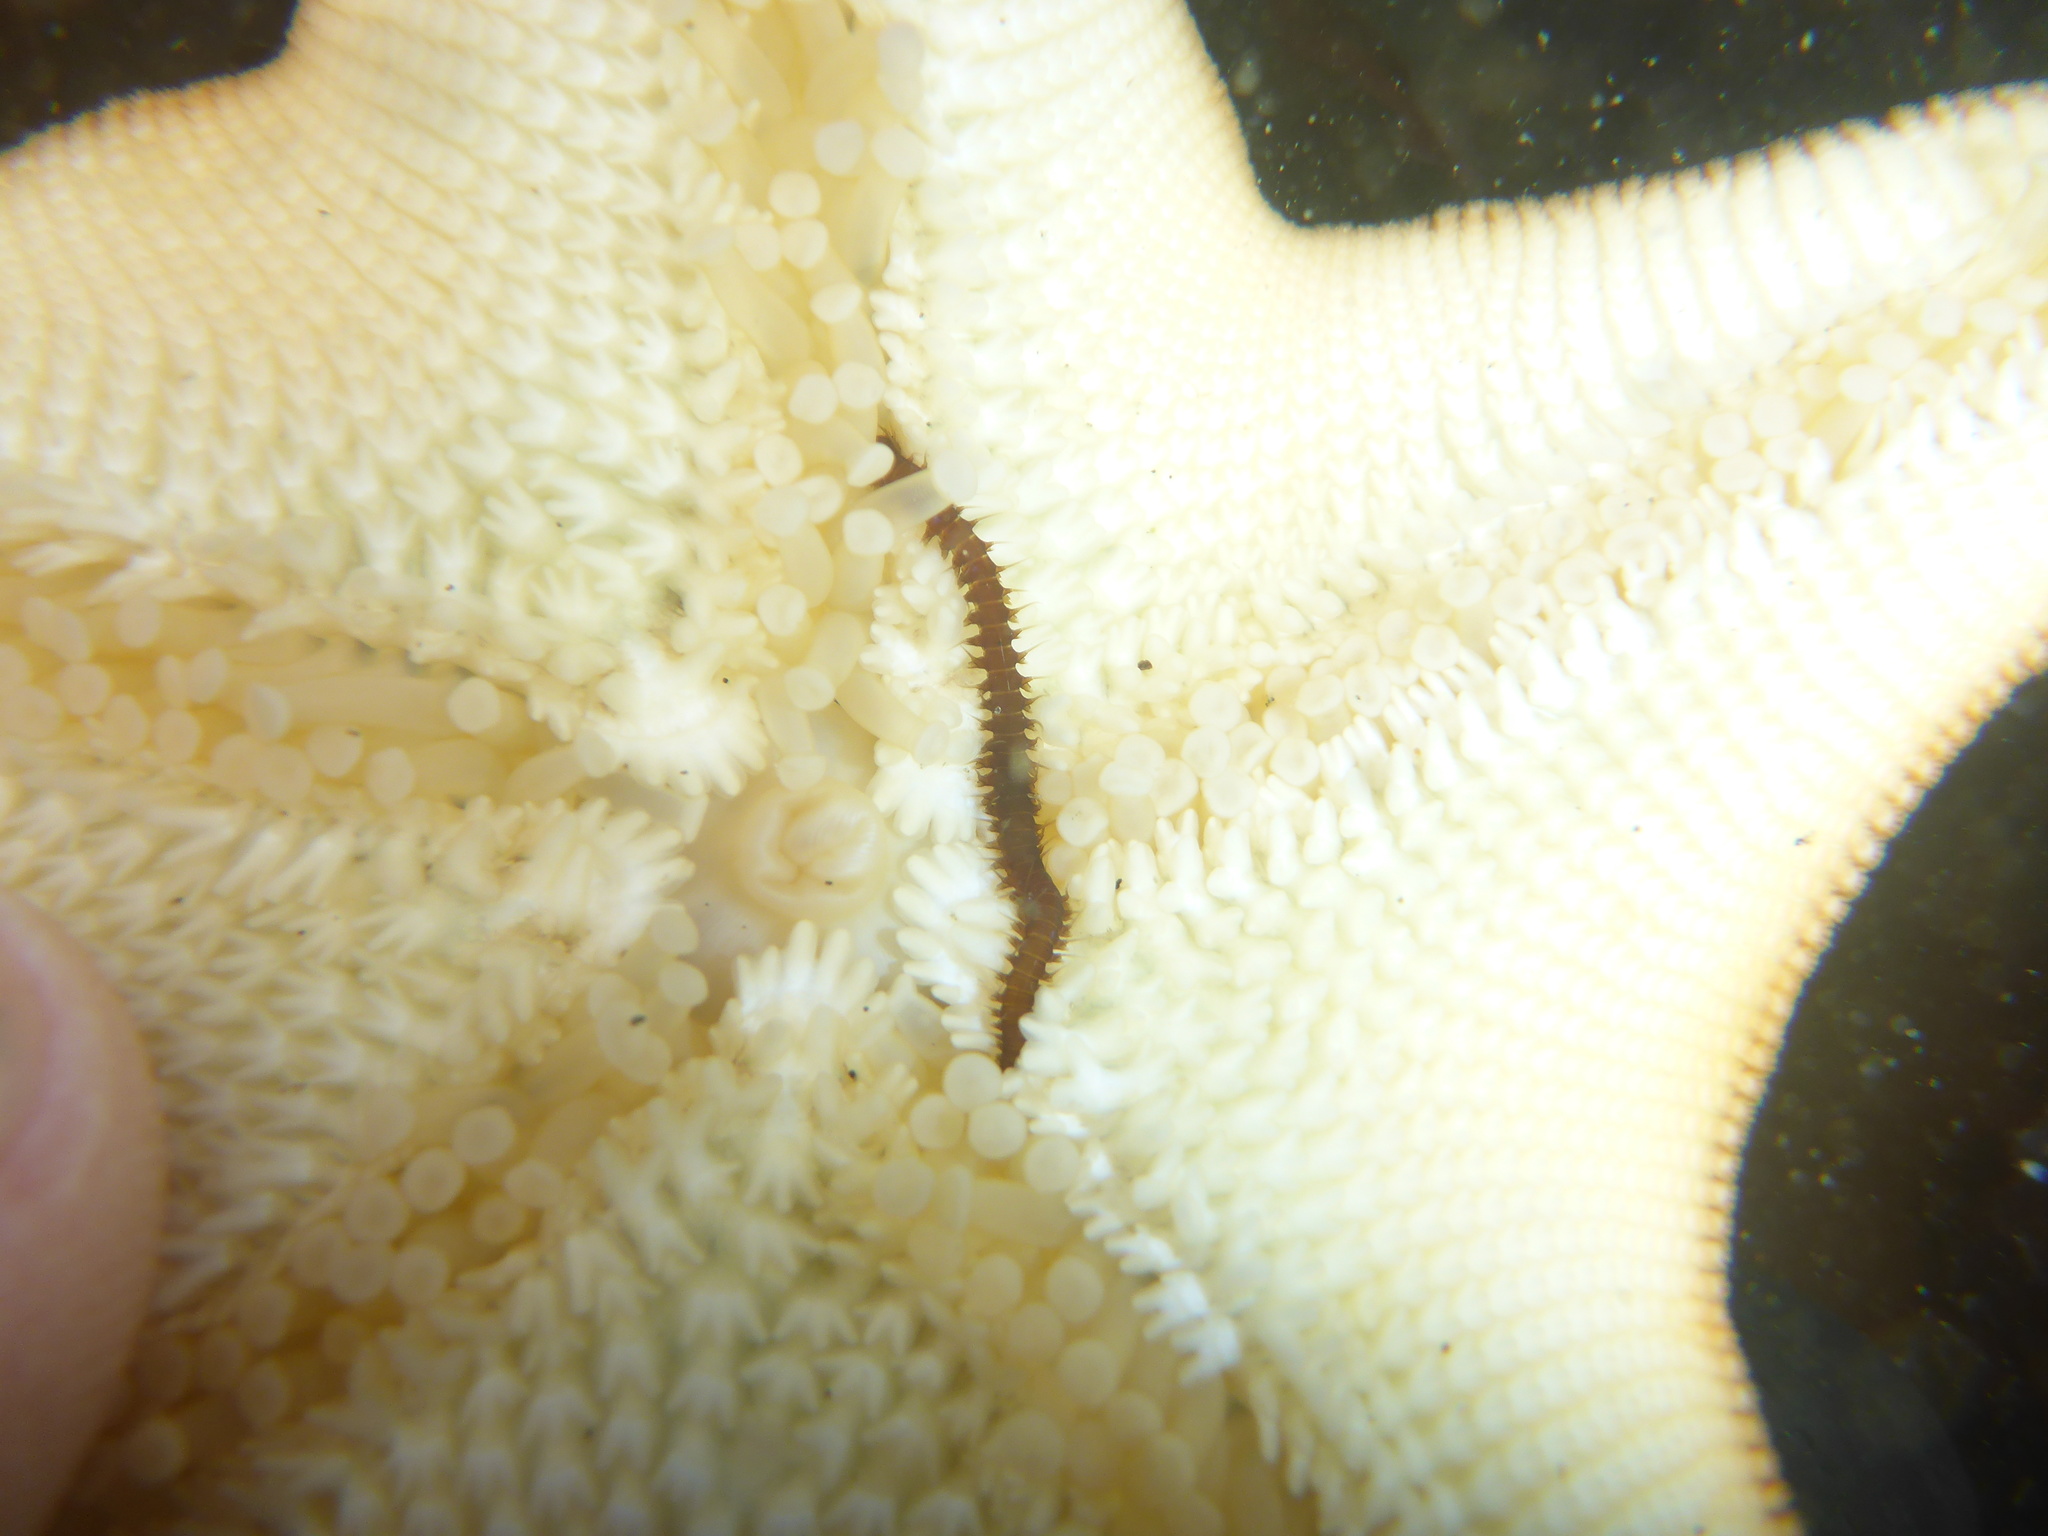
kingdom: Animalia
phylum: Annelida
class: Polychaeta
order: Phyllodocida
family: Hesionidae
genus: Oxydromus
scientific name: Oxydromus pugettensis
